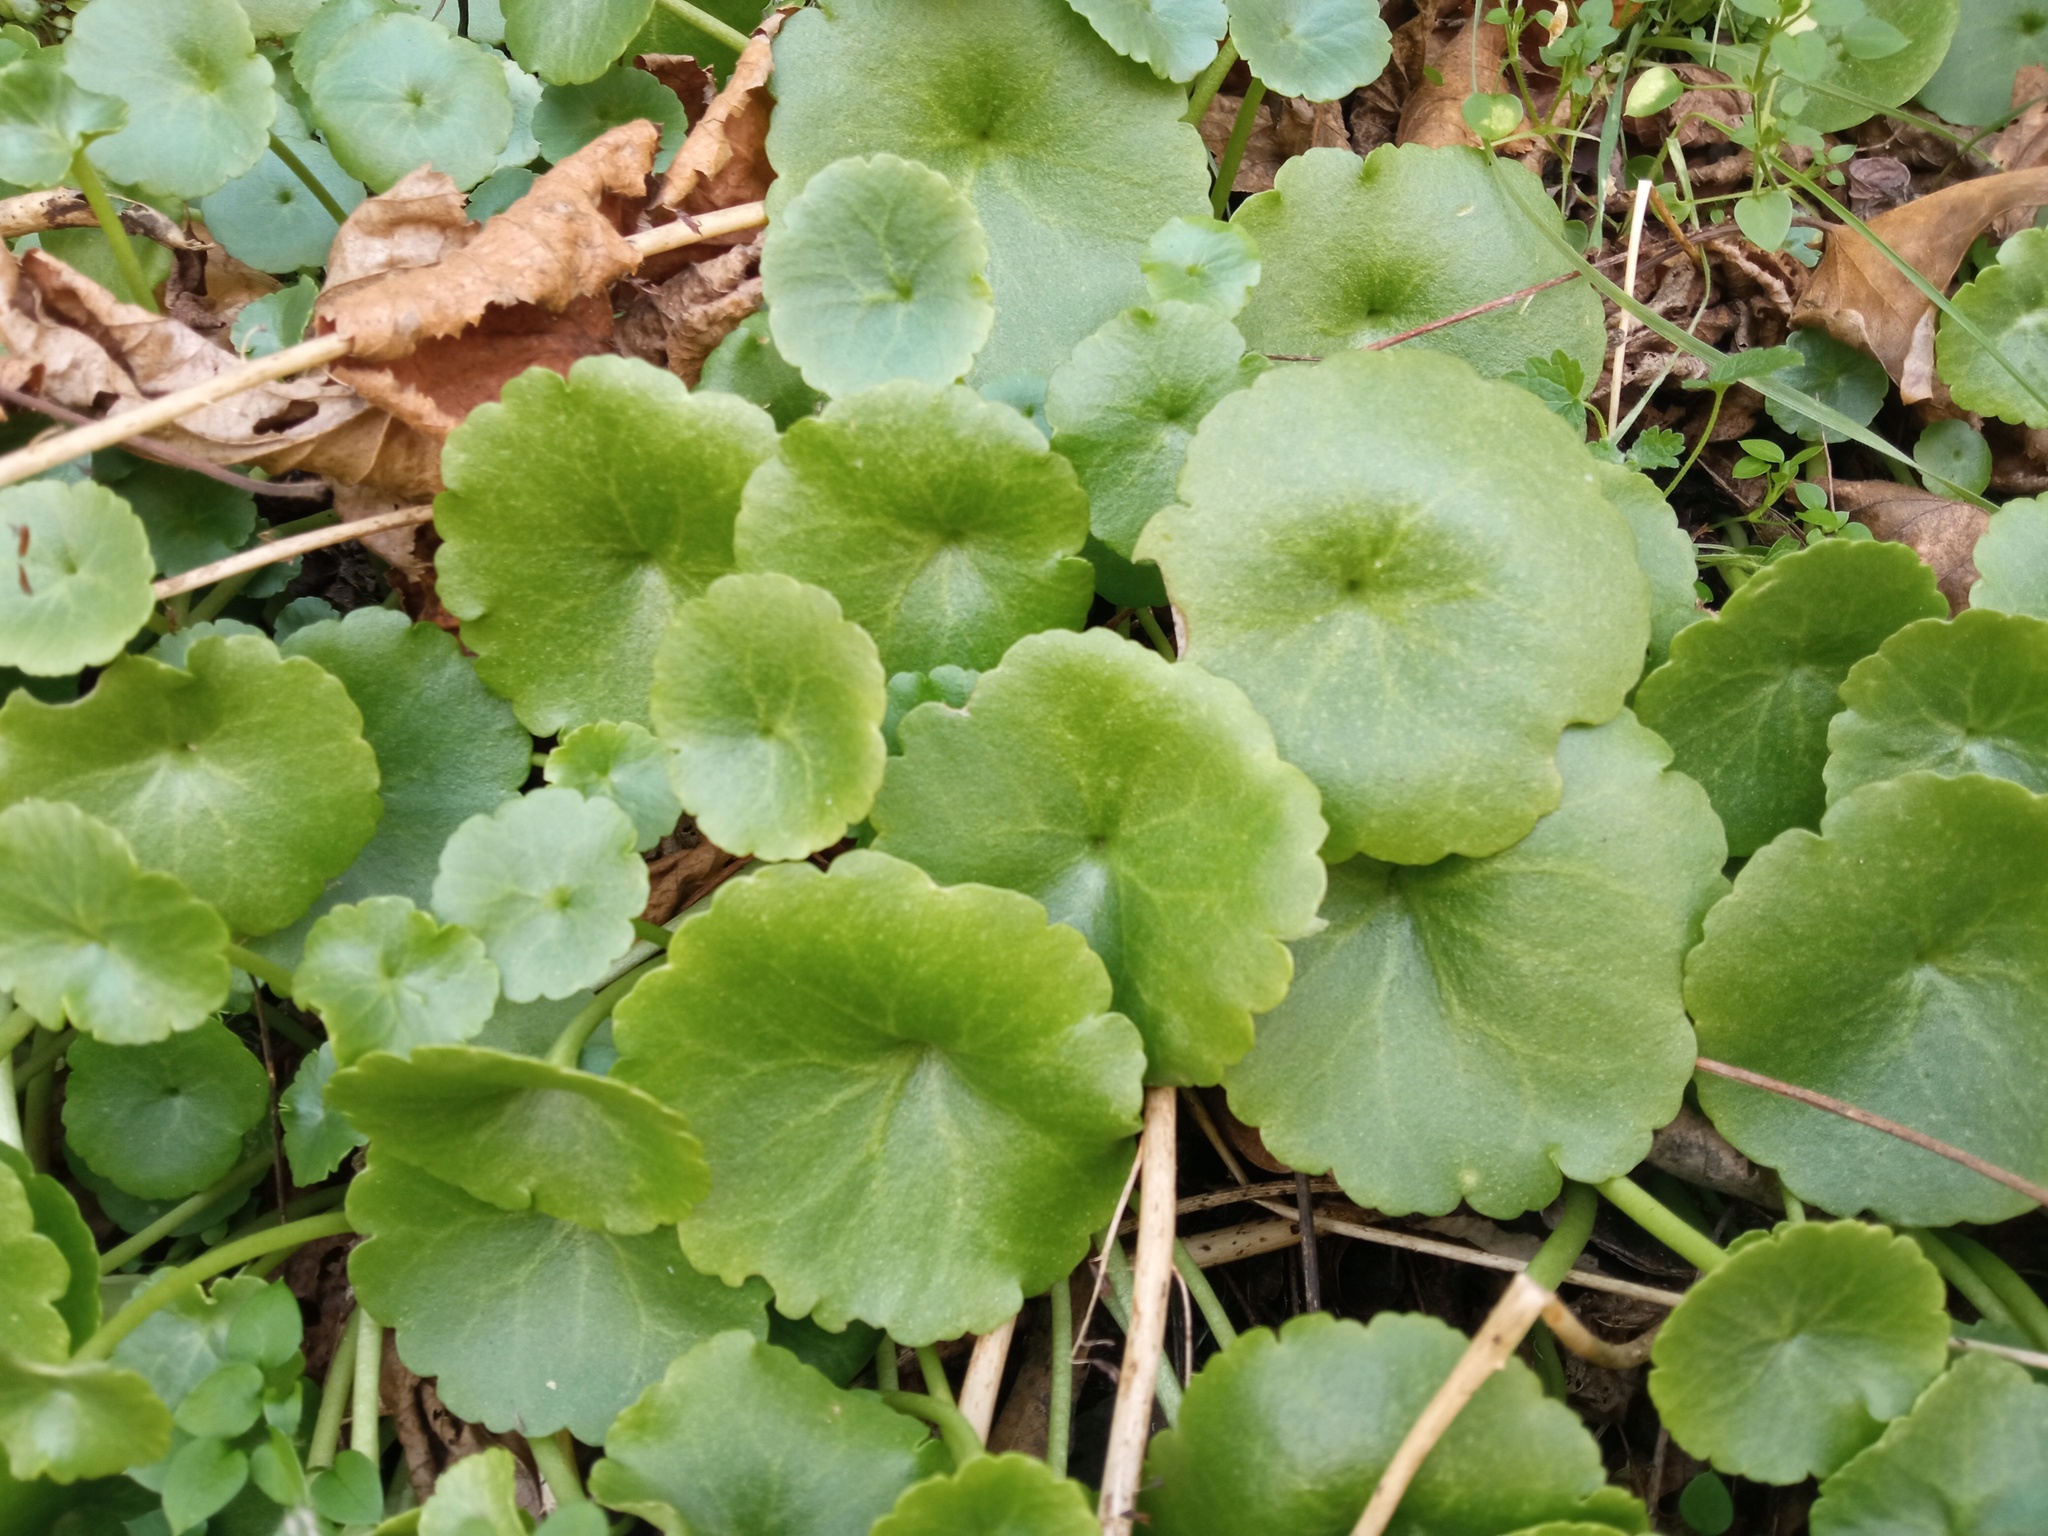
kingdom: Plantae
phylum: Tracheophyta
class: Magnoliopsida
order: Saxifragales
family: Crassulaceae
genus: Umbilicus
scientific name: Umbilicus rupestris
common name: Navelwort
